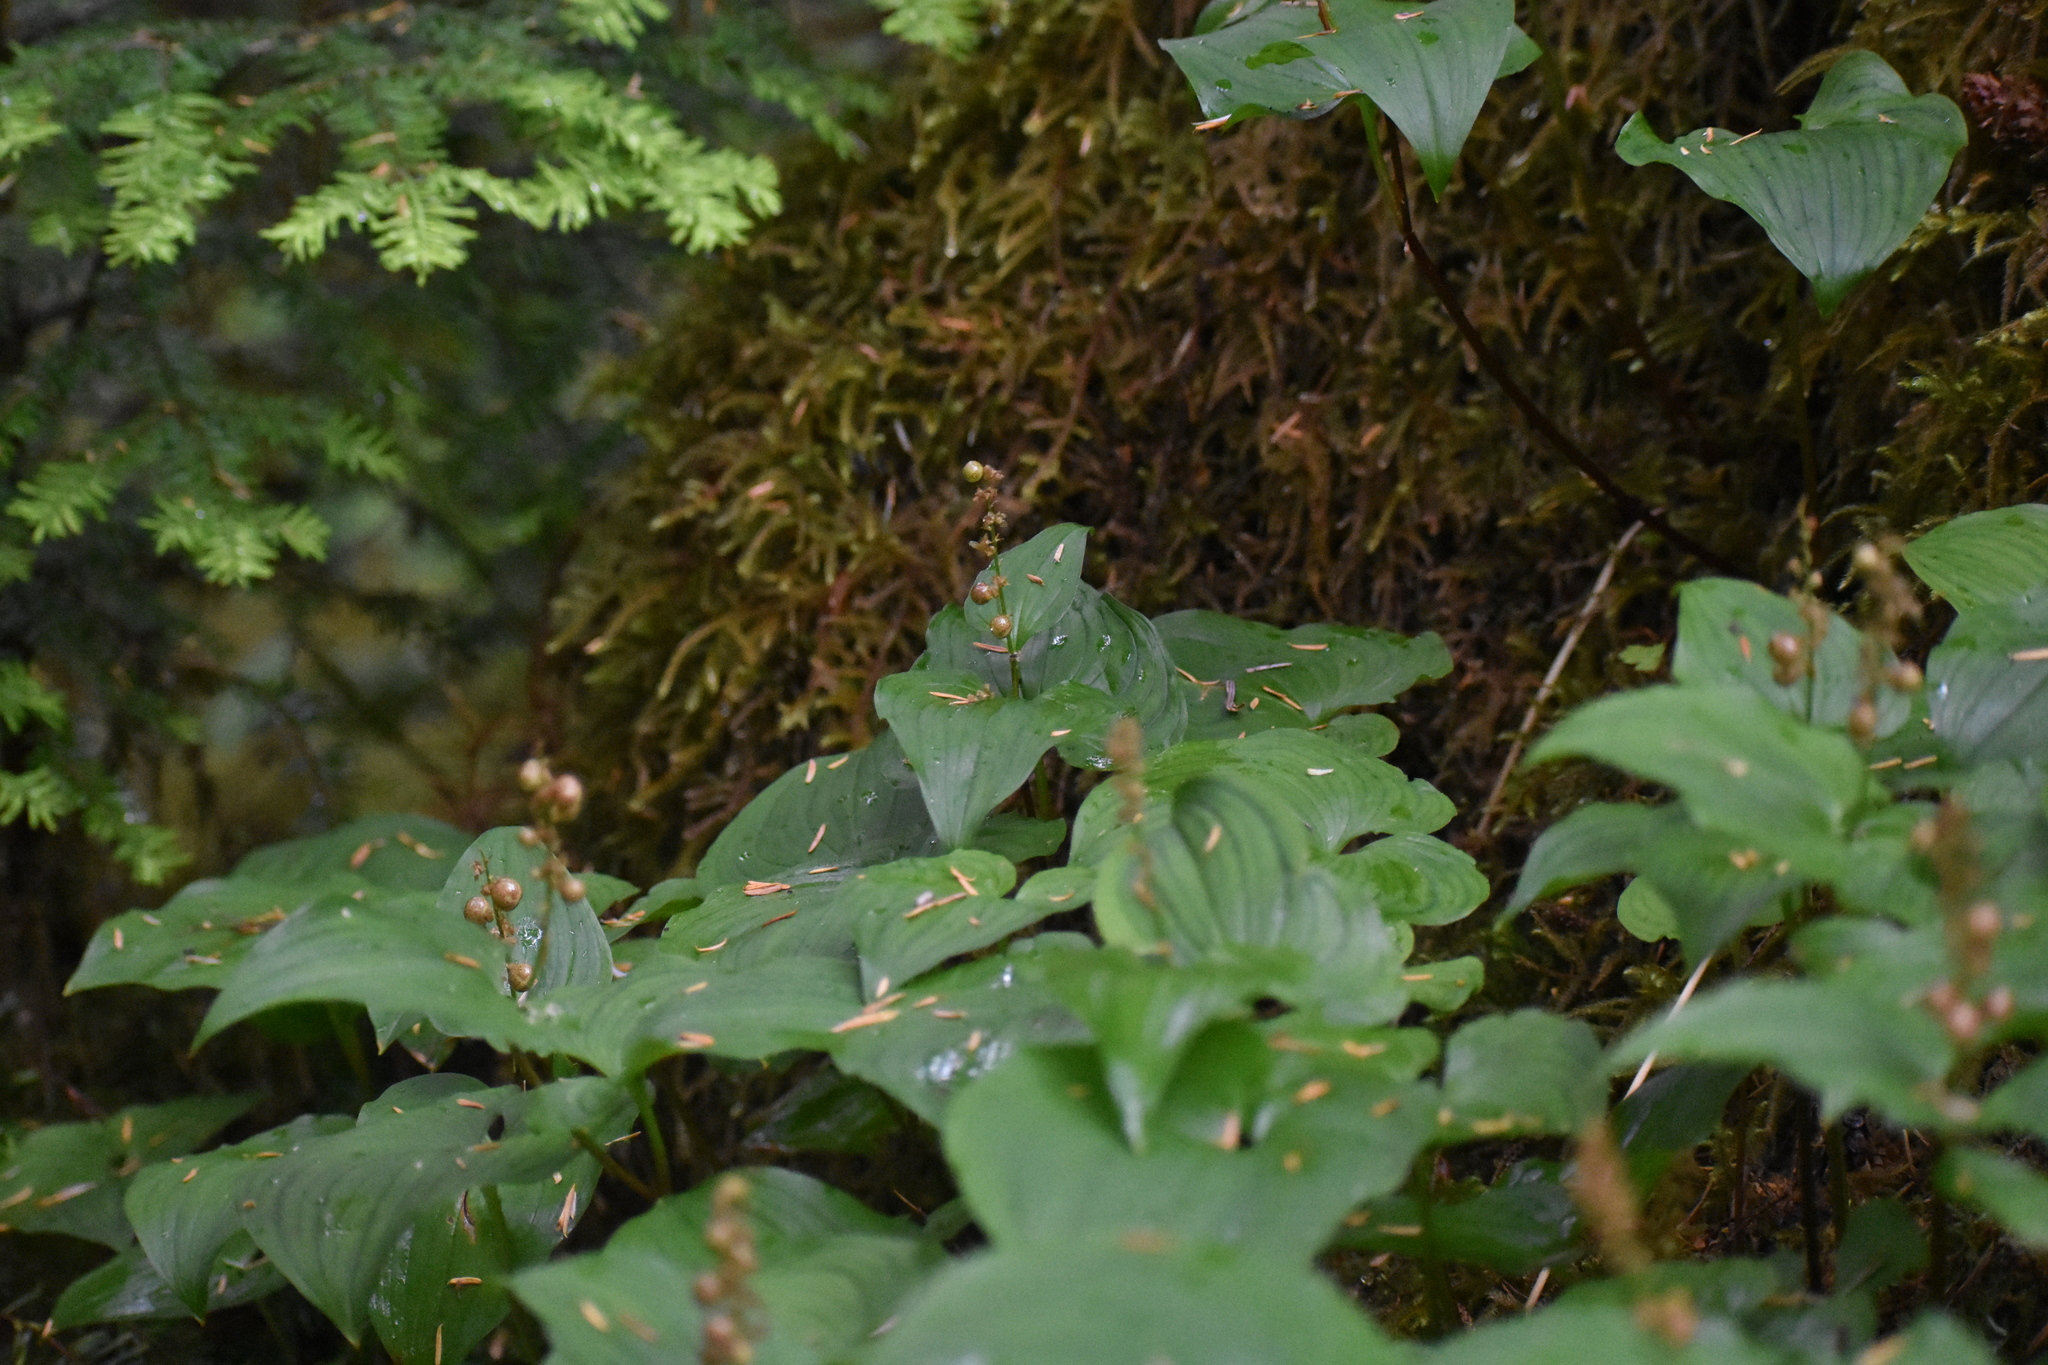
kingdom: Plantae
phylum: Tracheophyta
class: Liliopsida
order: Asparagales
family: Asparagaceae
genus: Maianthemum
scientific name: Maianthemum dilatatum
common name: False lily-of-the-valley
